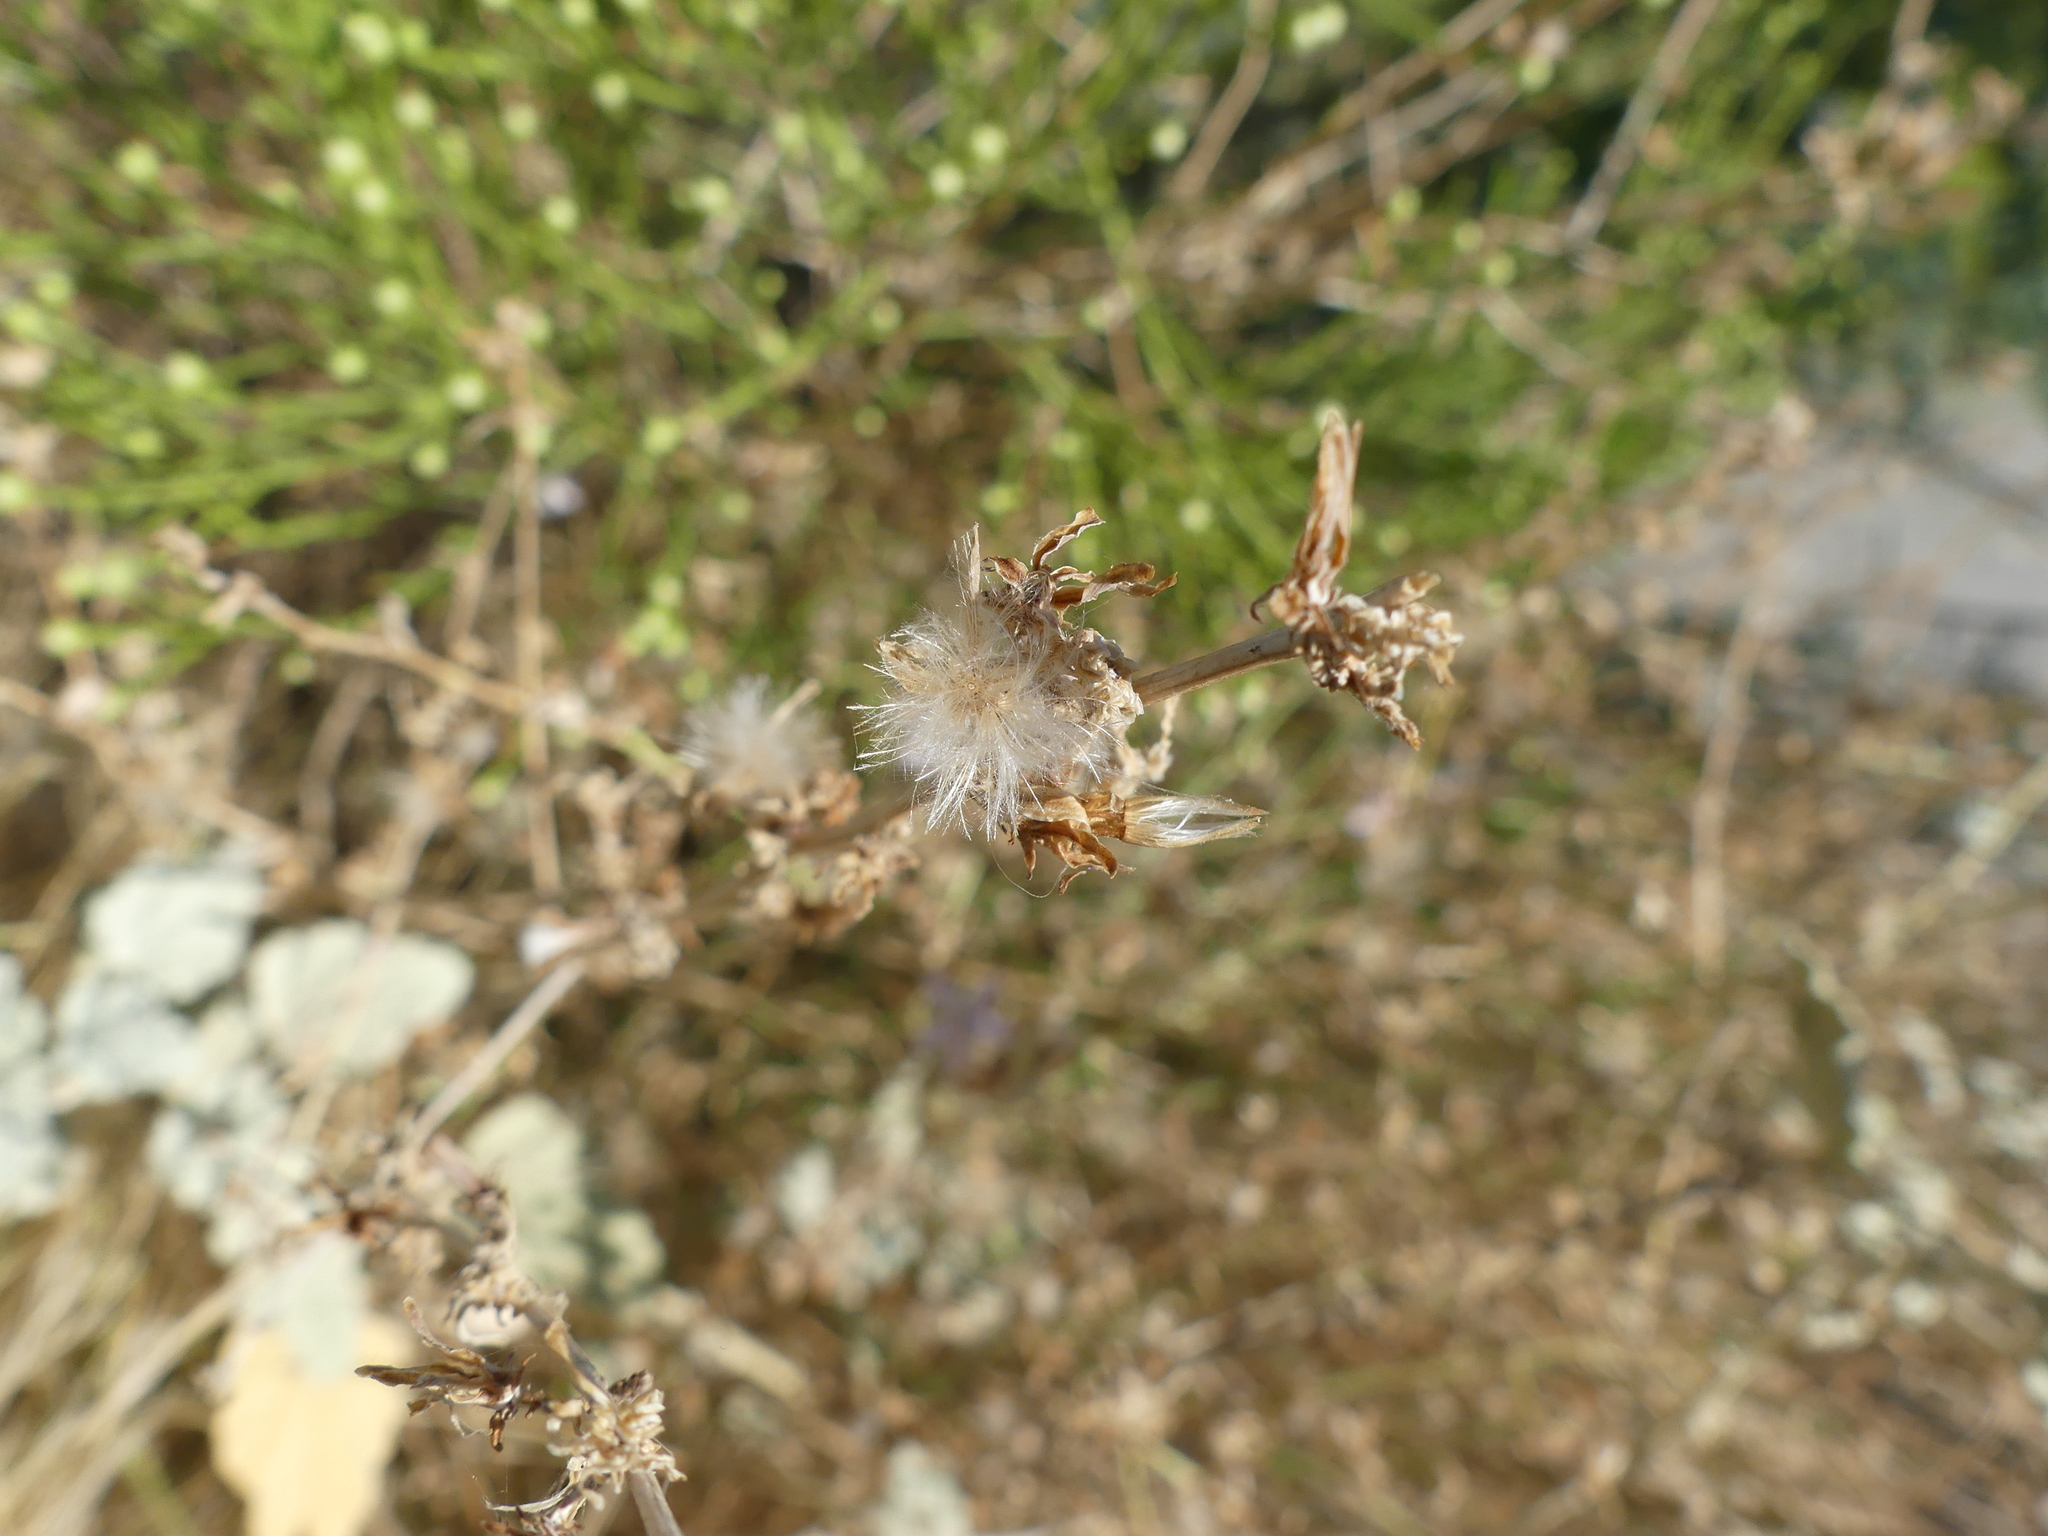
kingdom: Plantae
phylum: Tracheophyta
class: Magnoliopsida
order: Asterales
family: Asteraceae
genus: Stephanomeria
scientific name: Stephanomeria pauciflora
